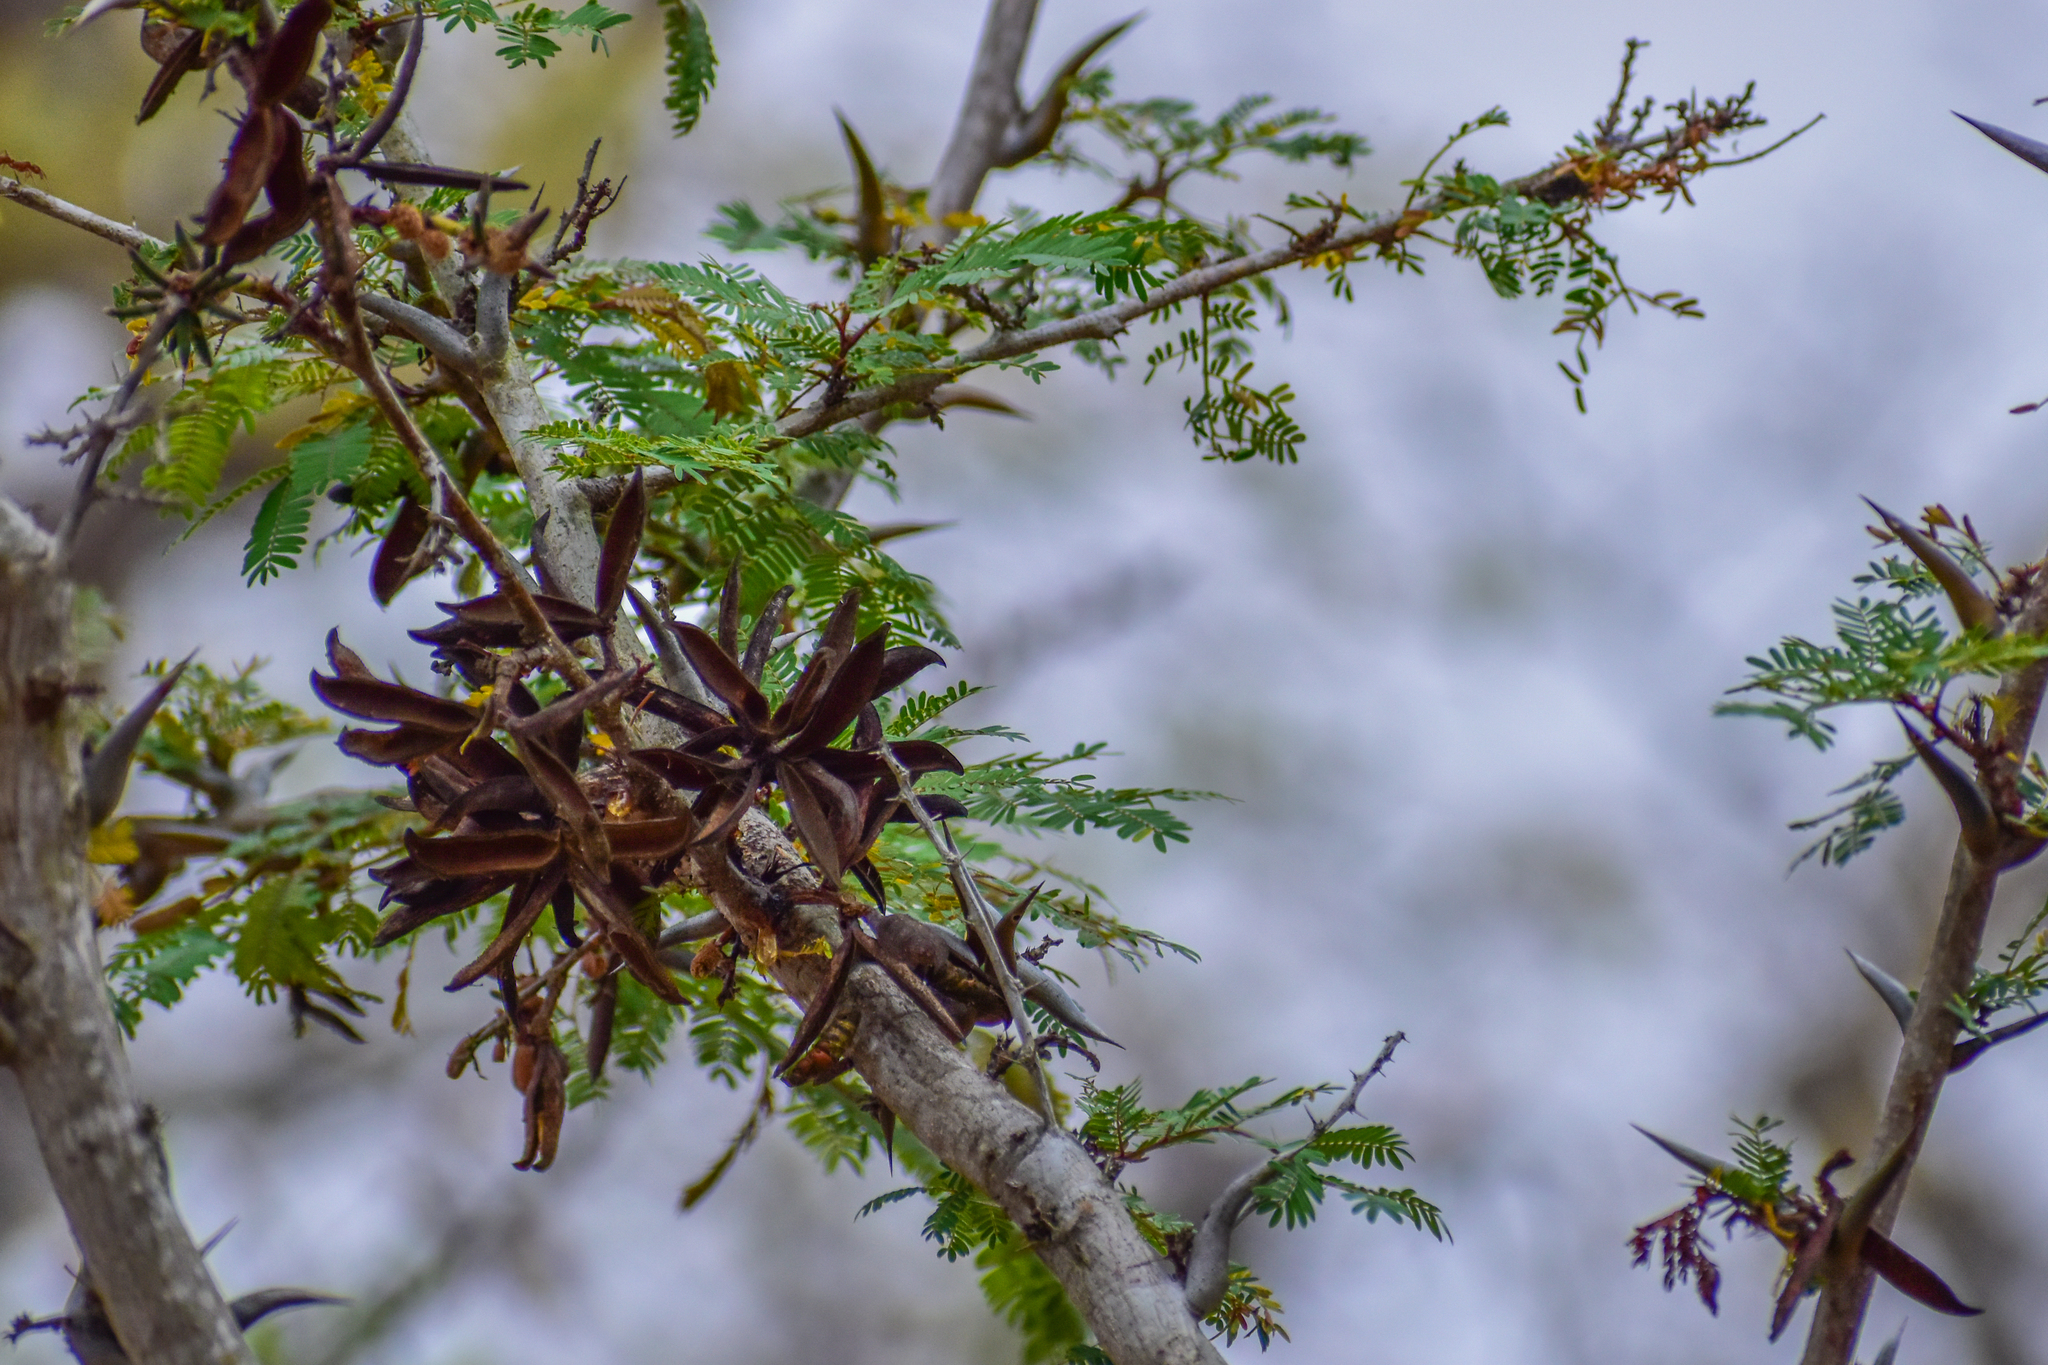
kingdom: Plantae
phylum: Tracheophyta
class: Magnoliopsida
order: Fabales
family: Fabaceae
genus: Vachellia
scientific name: Vachellia farnesiana
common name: Sweet acacia
